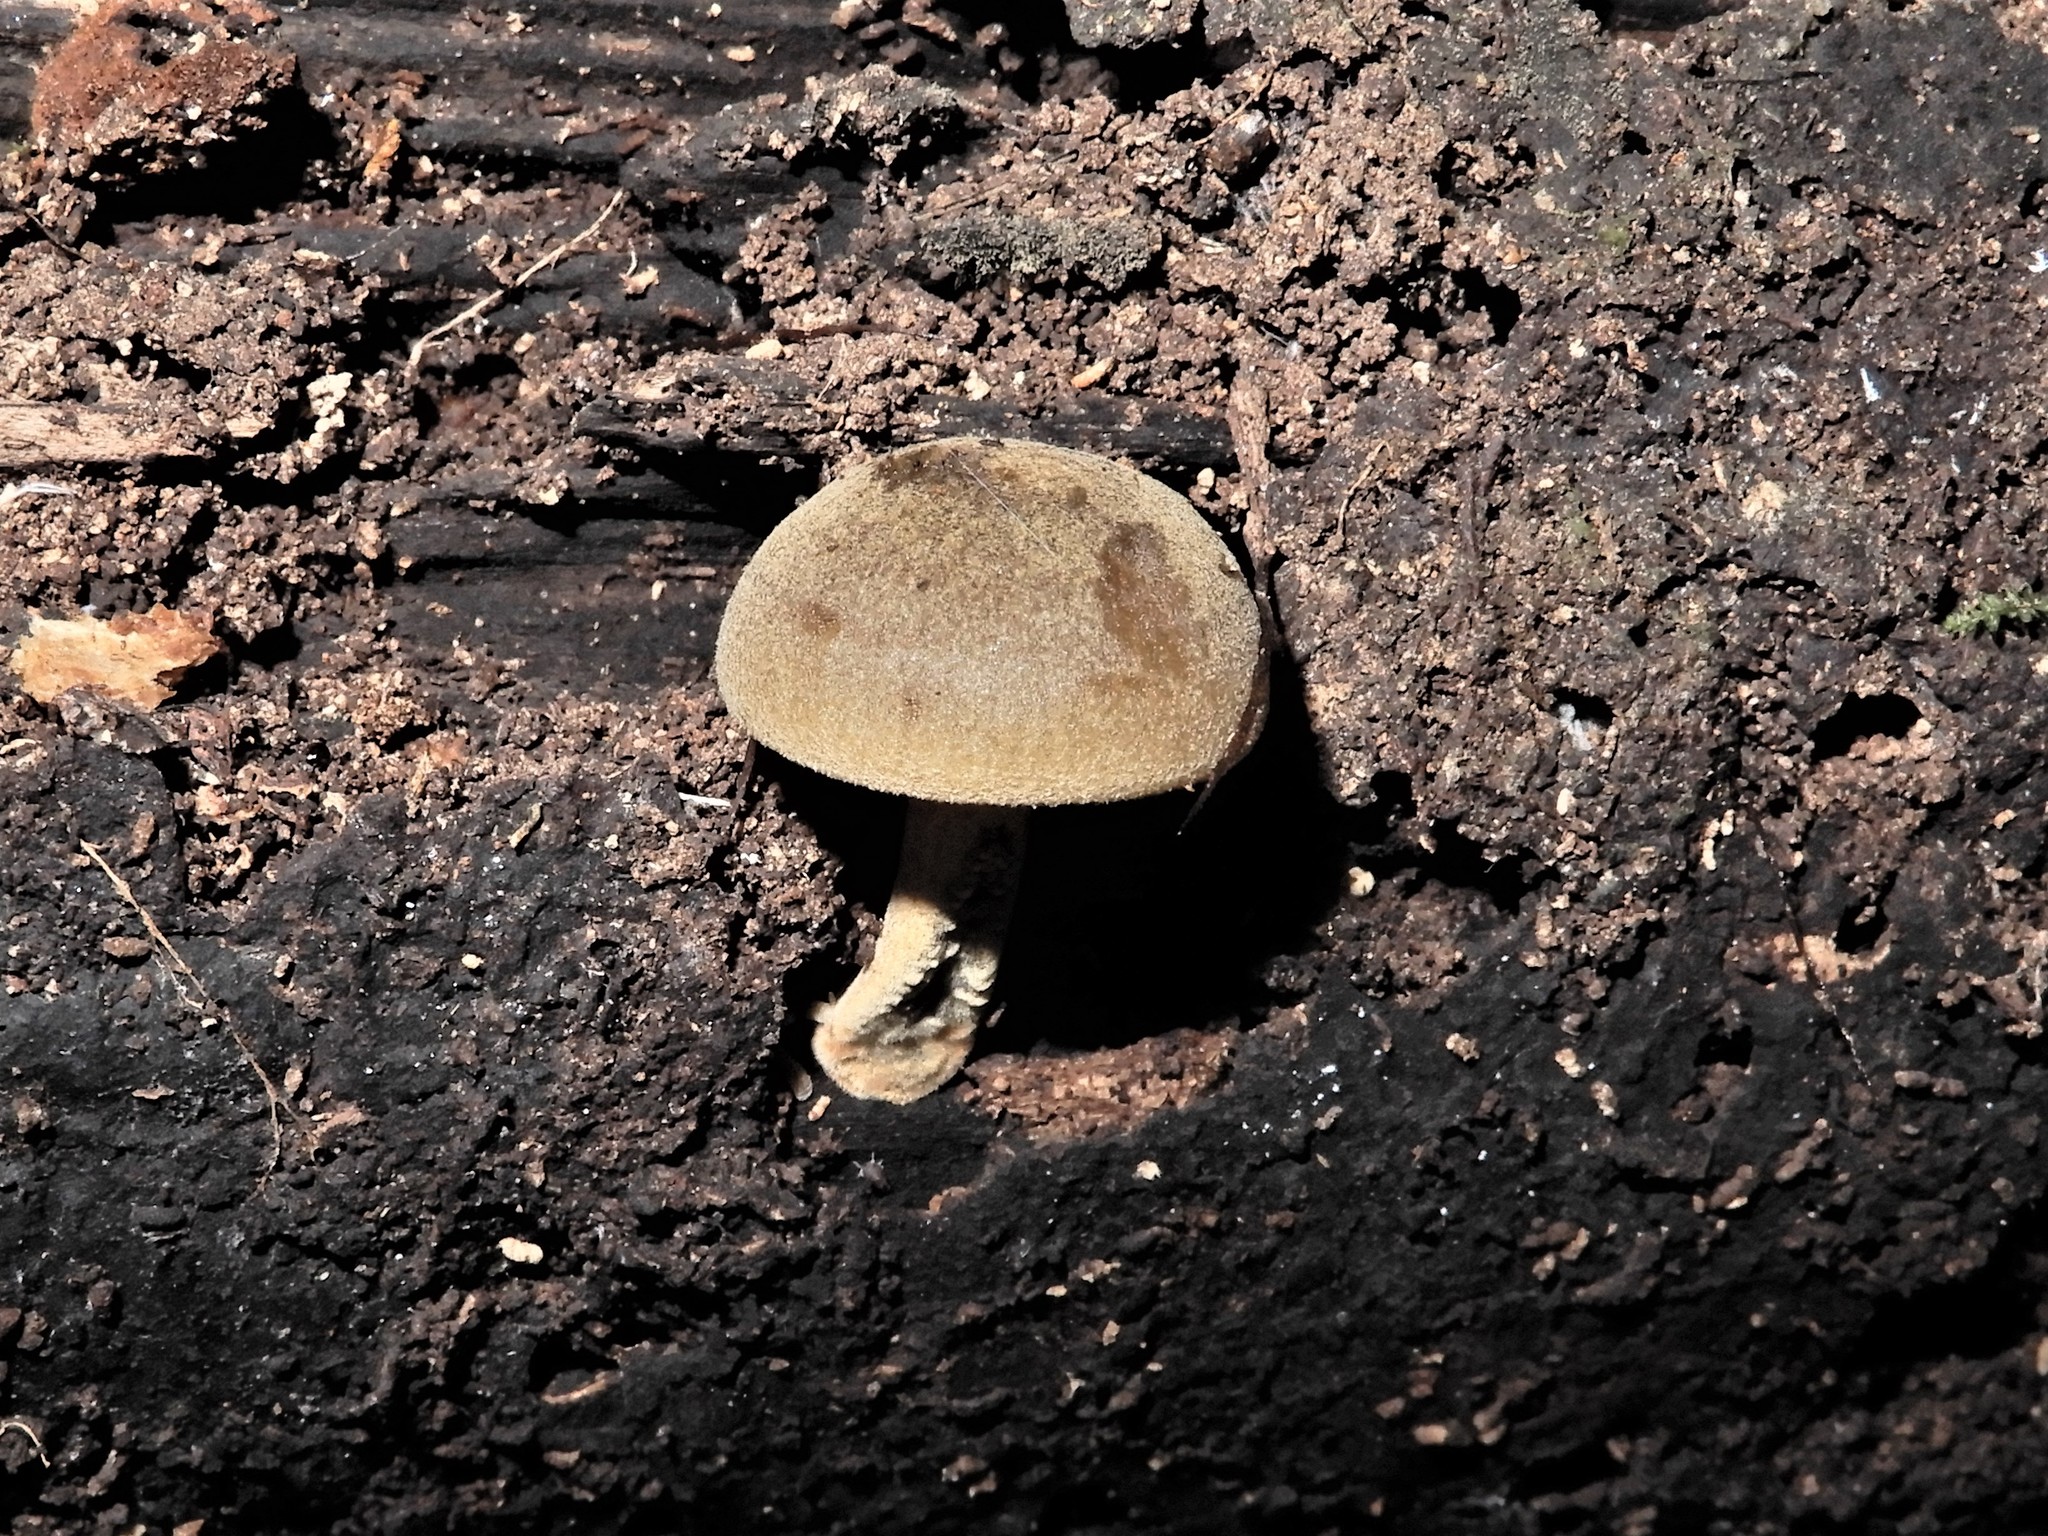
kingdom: Fungi
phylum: Basidiomycota
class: Agaricomycetes
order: Agaricales
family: Mycenaceae
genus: Heimiomyces
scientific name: Heimiomyces velutipes
